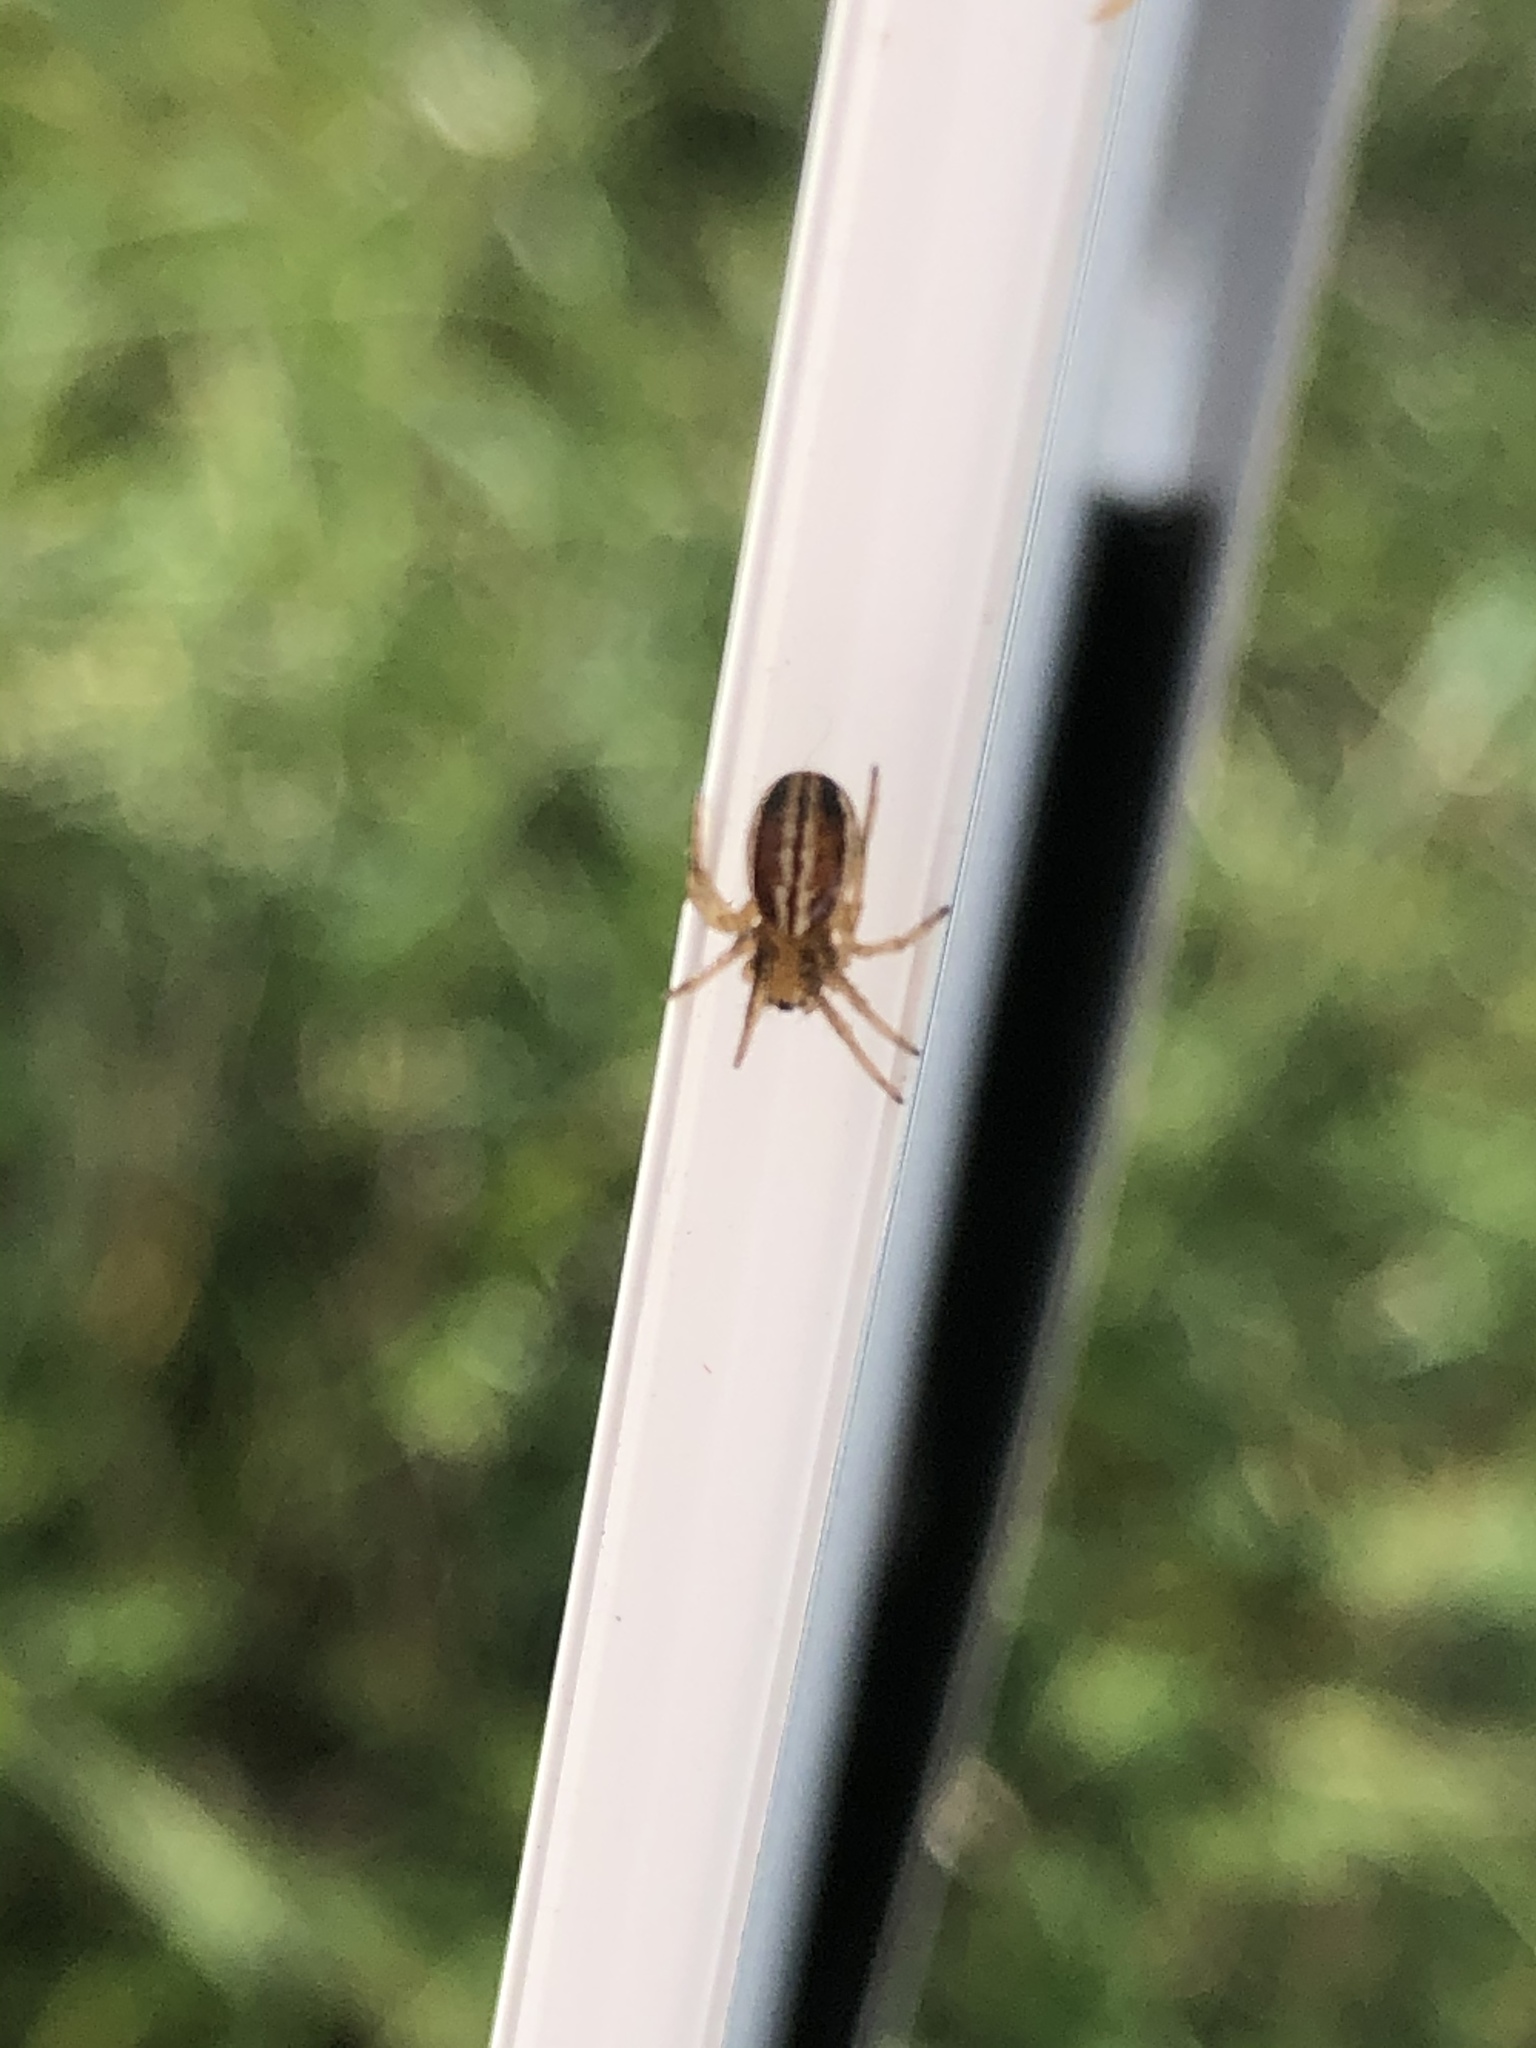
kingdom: Animalia
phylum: Arthropoda
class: Arachnida
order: Araneae
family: Araneidae
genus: Araneus
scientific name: Araneus pratensis
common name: Openfield orbweaver
